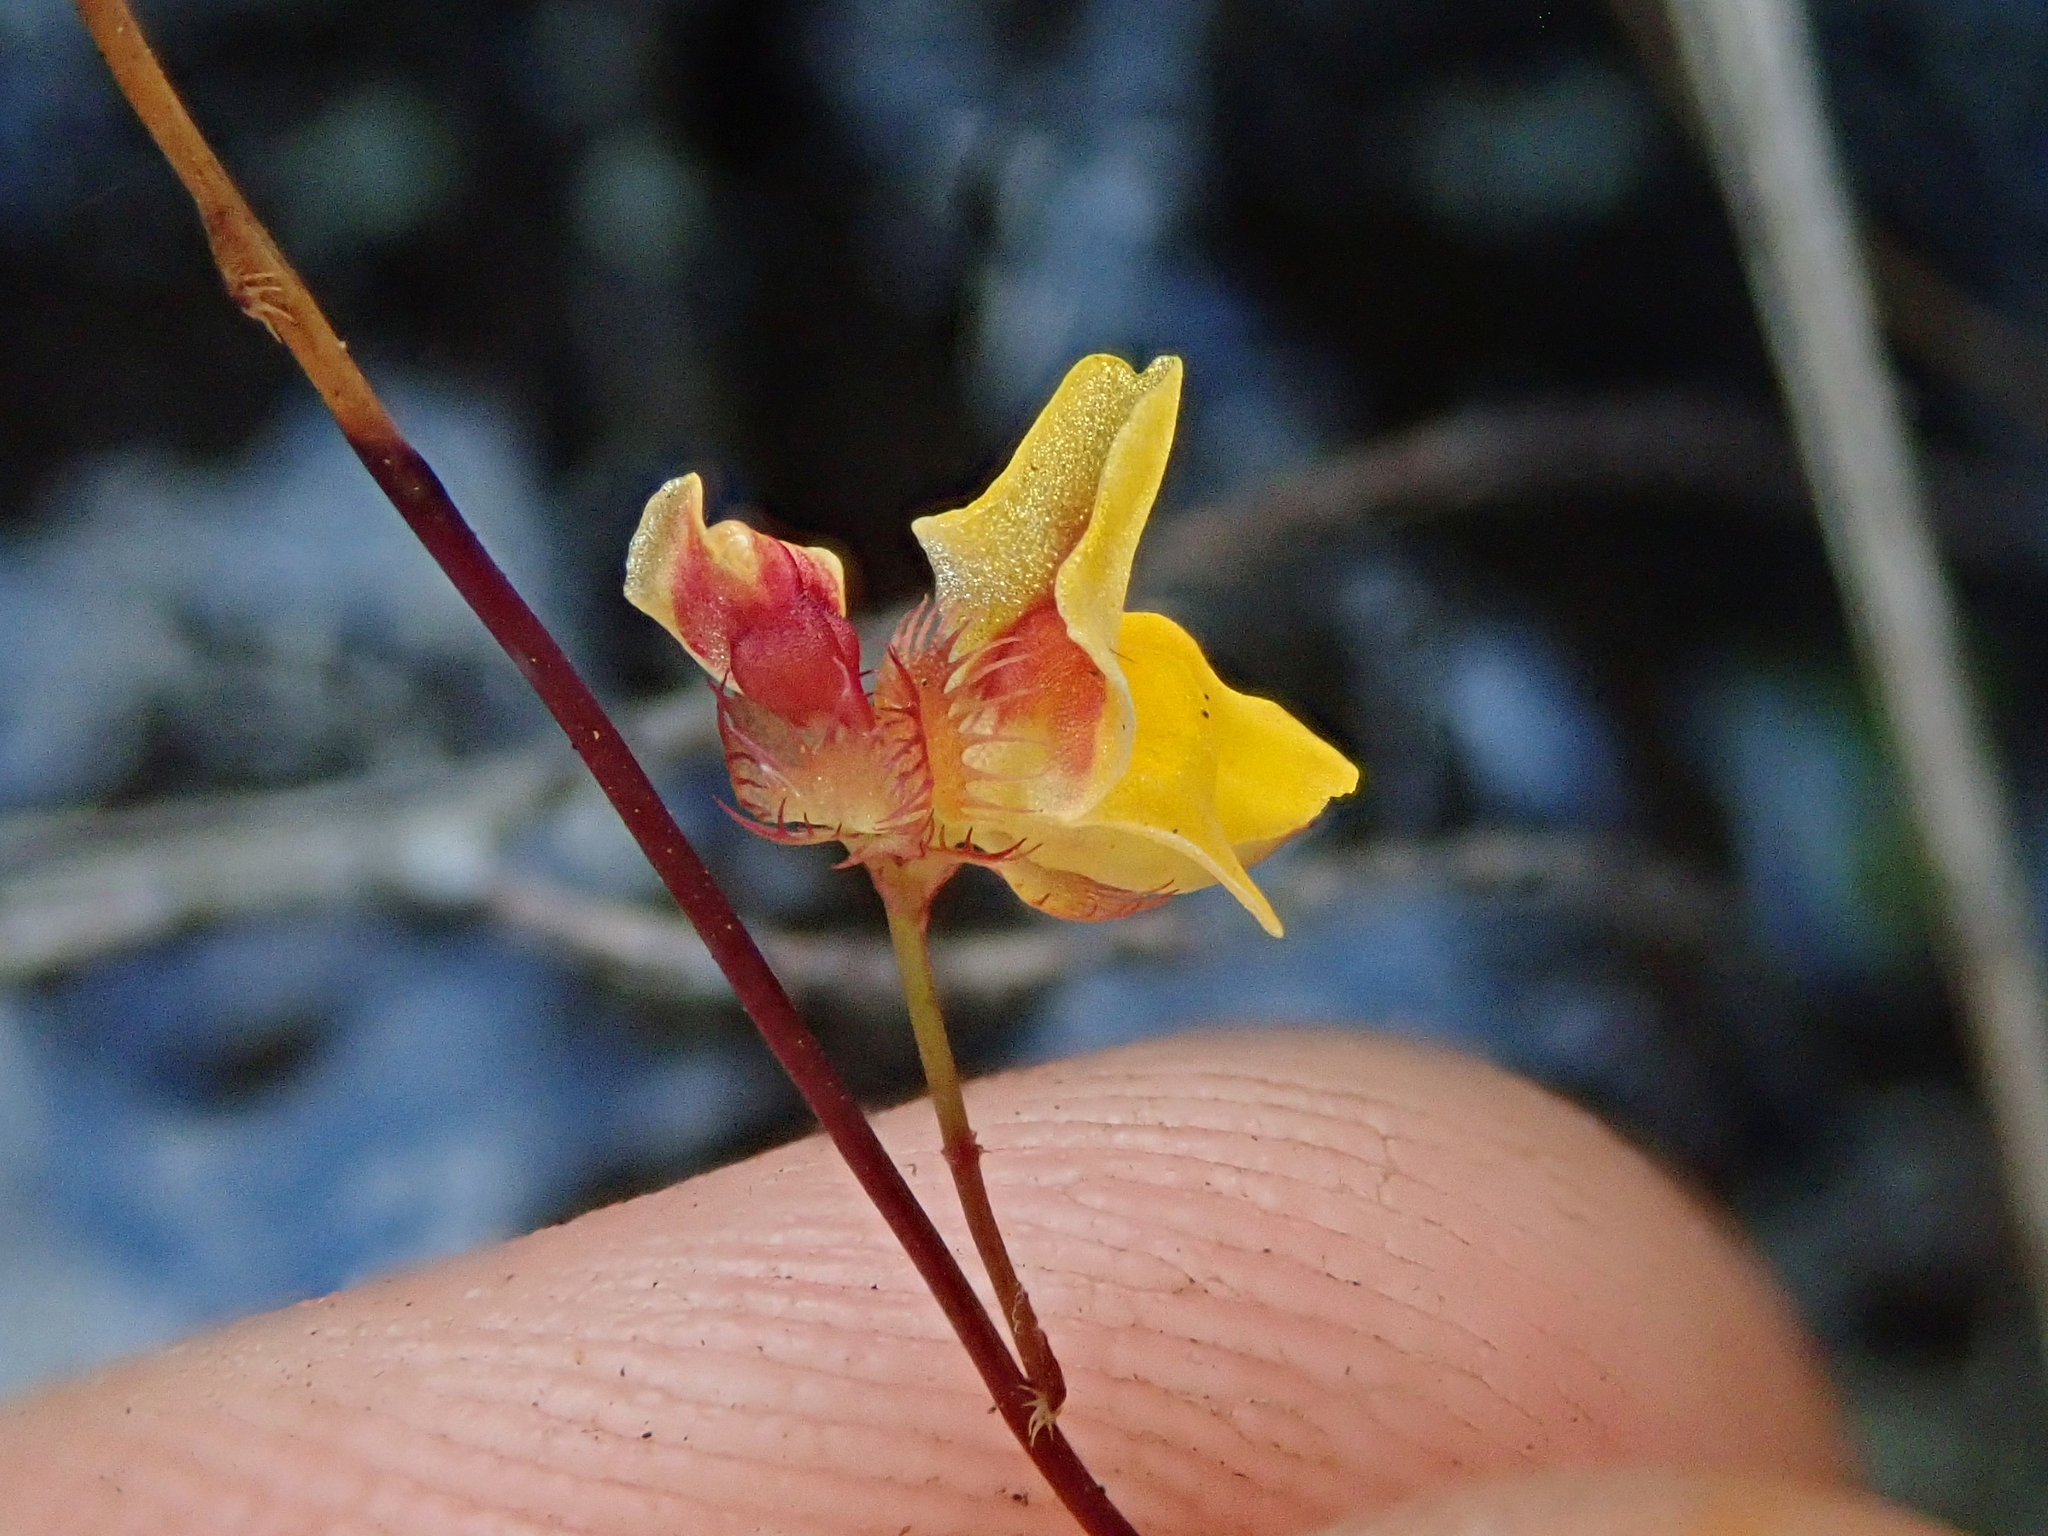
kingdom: Plantae
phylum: Tracheophyta
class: Magnoliopsida
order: Lamiales
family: Lentibulariaceae
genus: Utricularia
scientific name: Utricularia simulans
